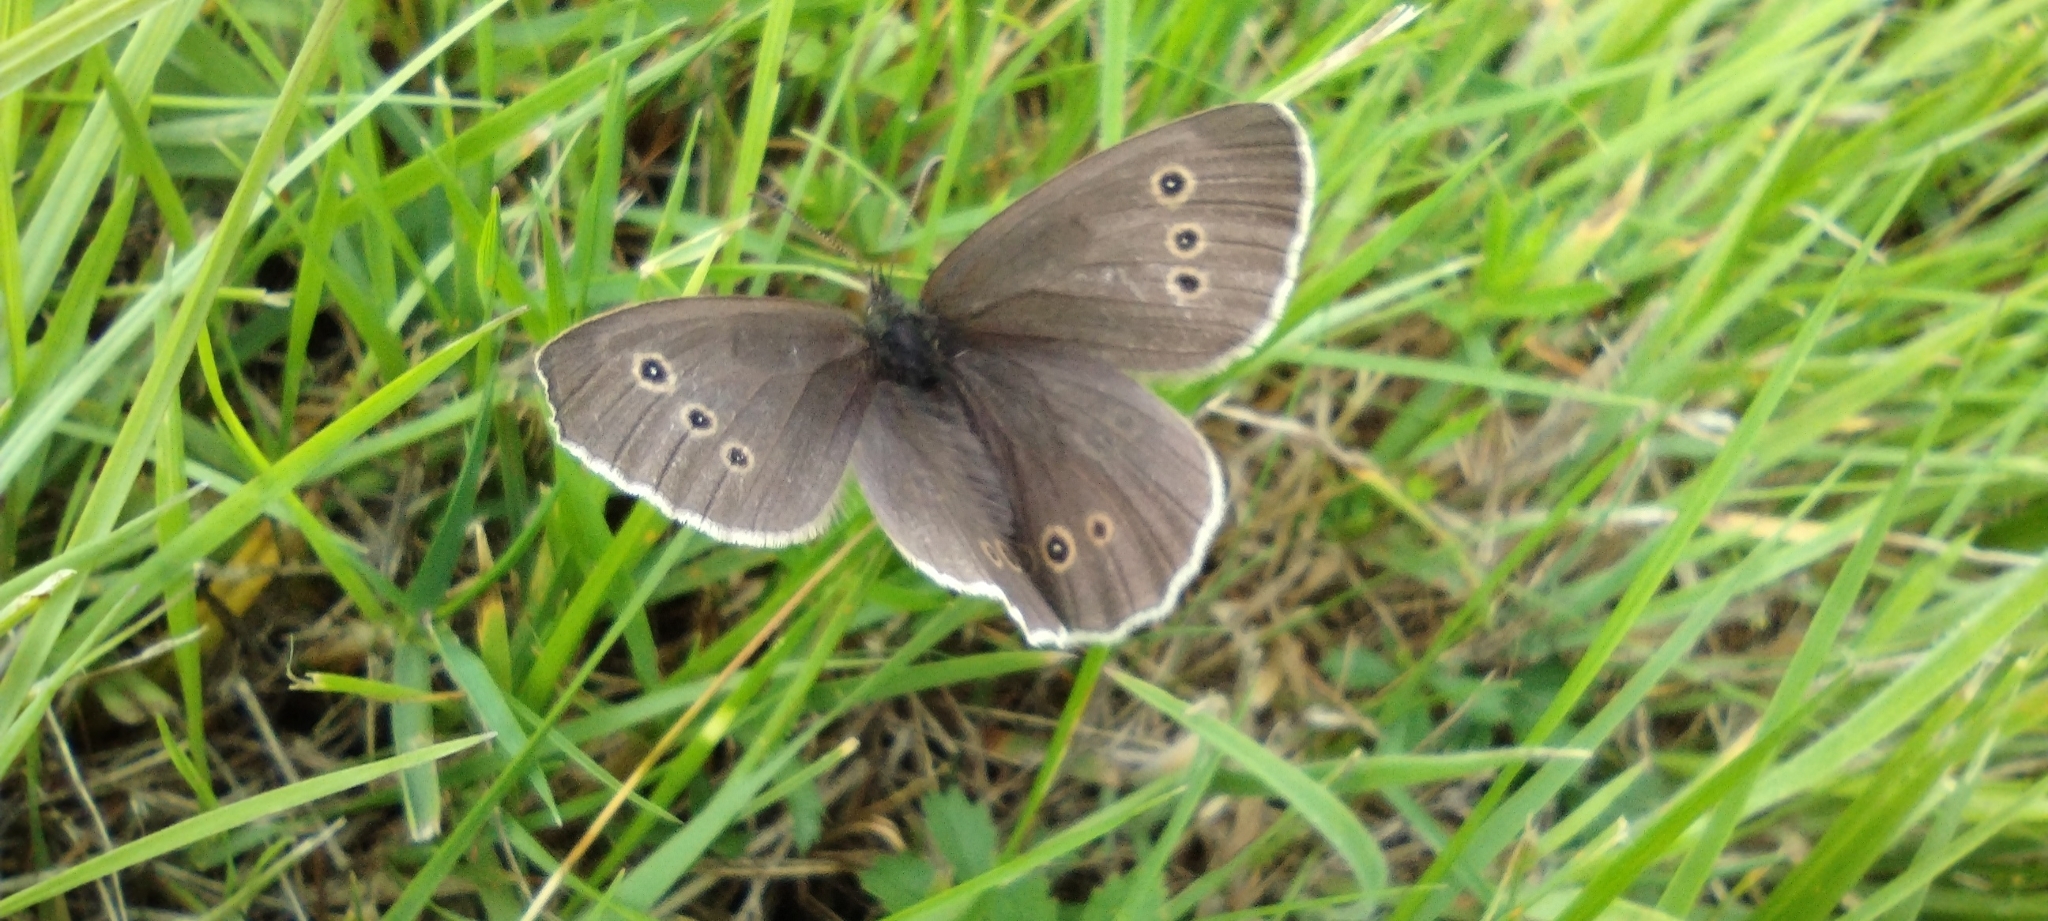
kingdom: Animalia
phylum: Arthropoda
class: Insecta
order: Lepidoptera
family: Nymphalidae
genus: Aphantopus
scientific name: Aphantopus hyperantus
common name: Ringlet
